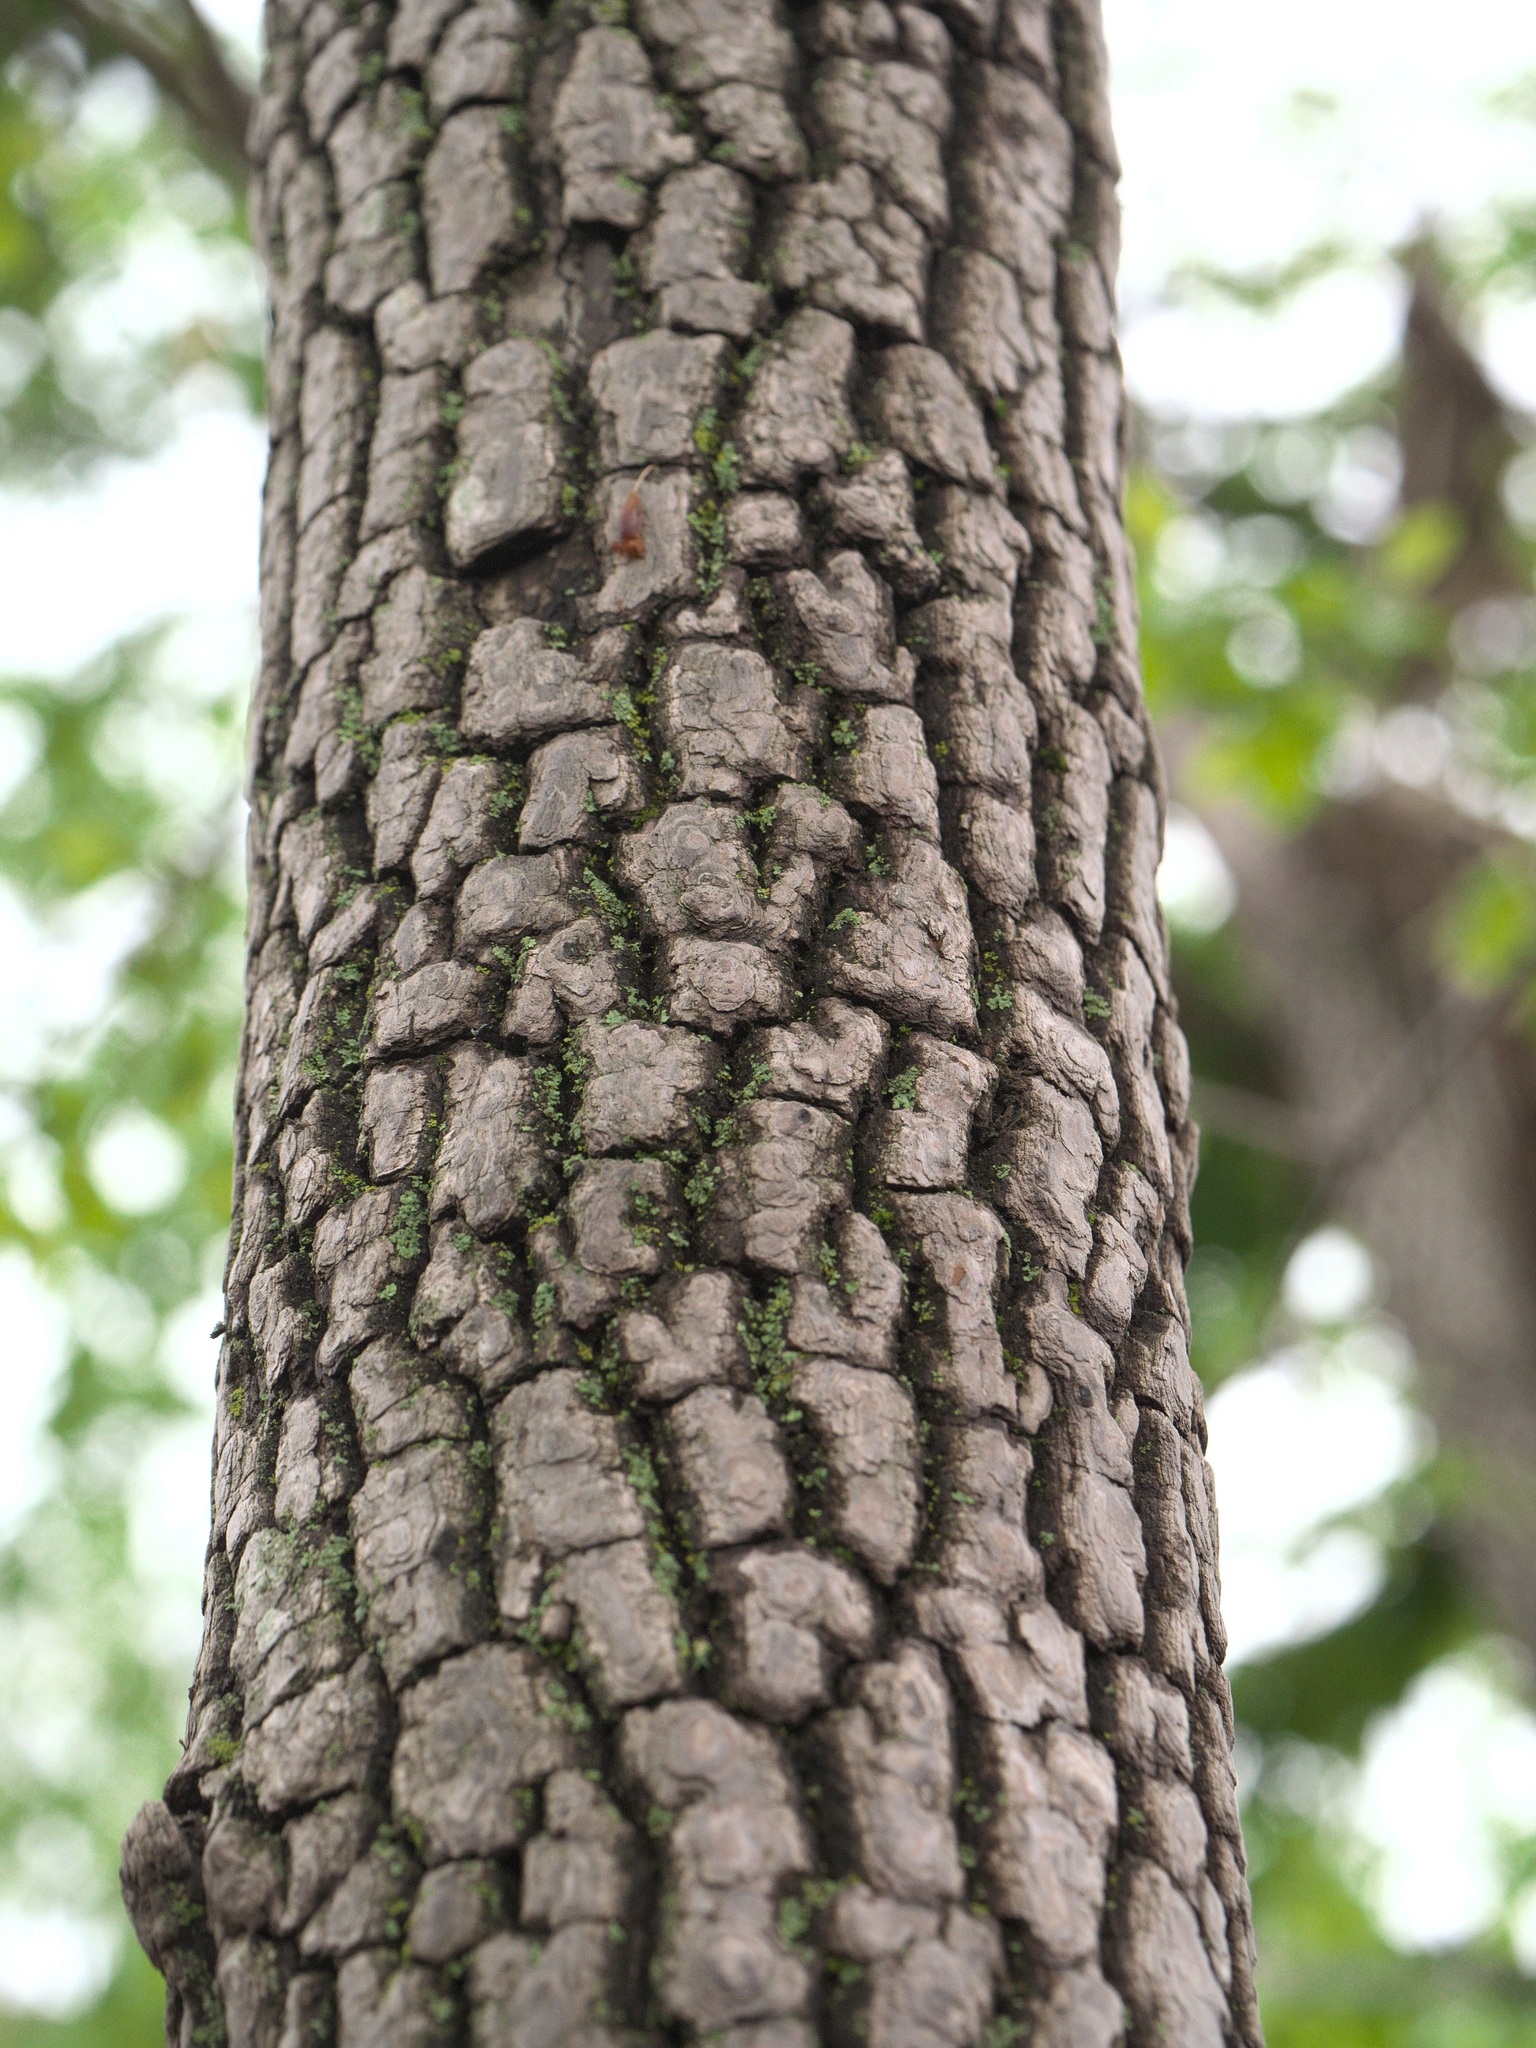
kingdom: Plantae
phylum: Tracheophyta
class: Magnoliopsida
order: Ericales
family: Ebenaceae
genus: Diospyros
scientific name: Diospyros virginiana
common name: Persimmon
